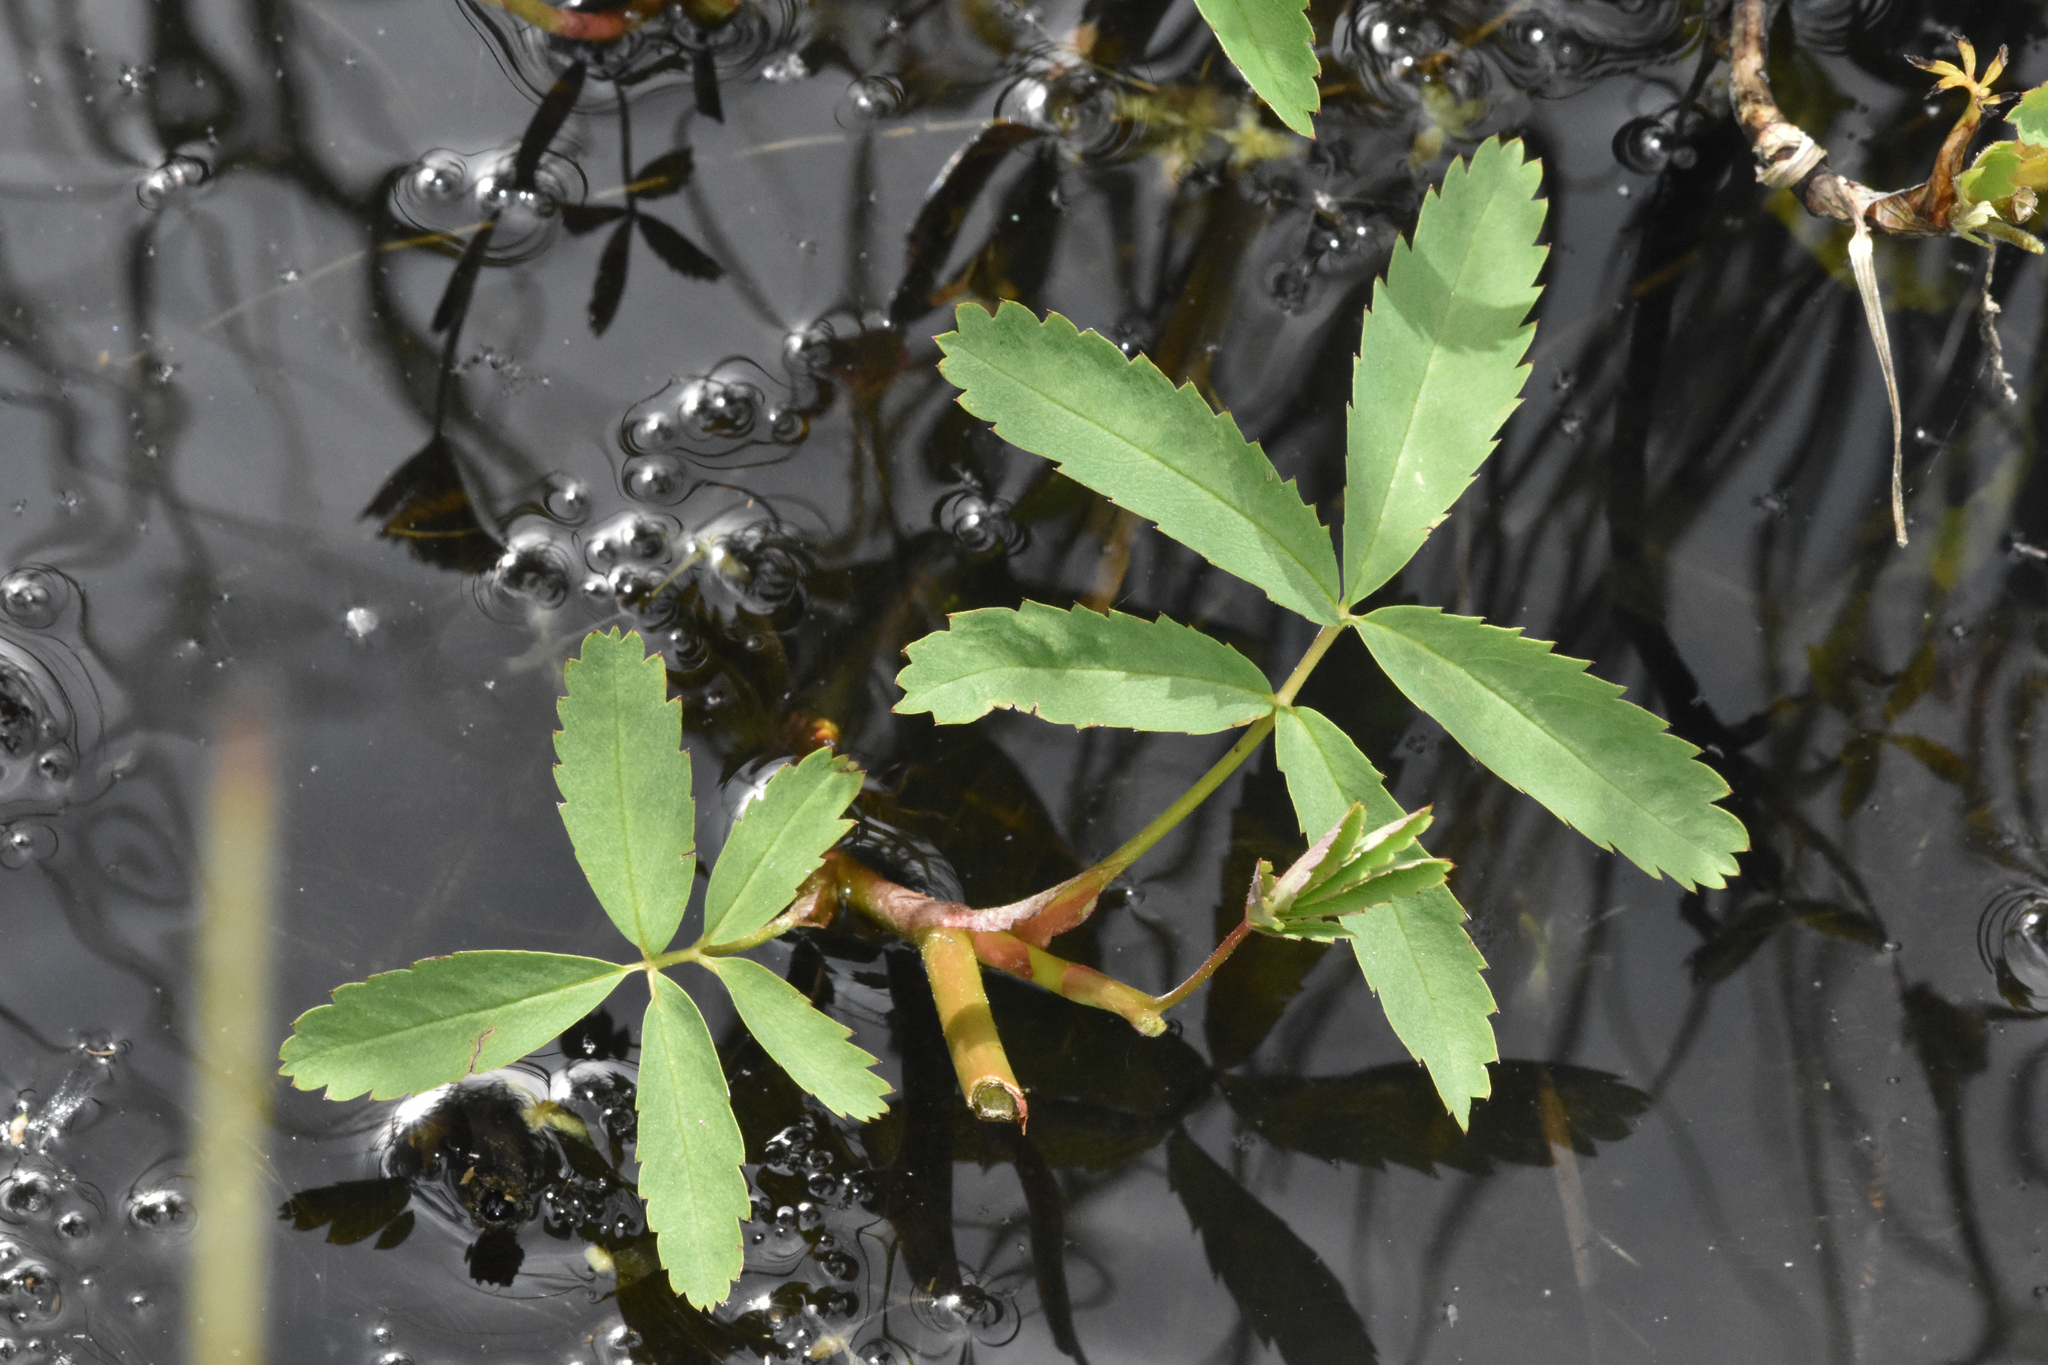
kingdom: Plantae
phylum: Tracheophyta
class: Magnoliopsida
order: Rosales
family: Rosaceae
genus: Comarum
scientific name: Comarum palustre
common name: Marsh cinquefoil
